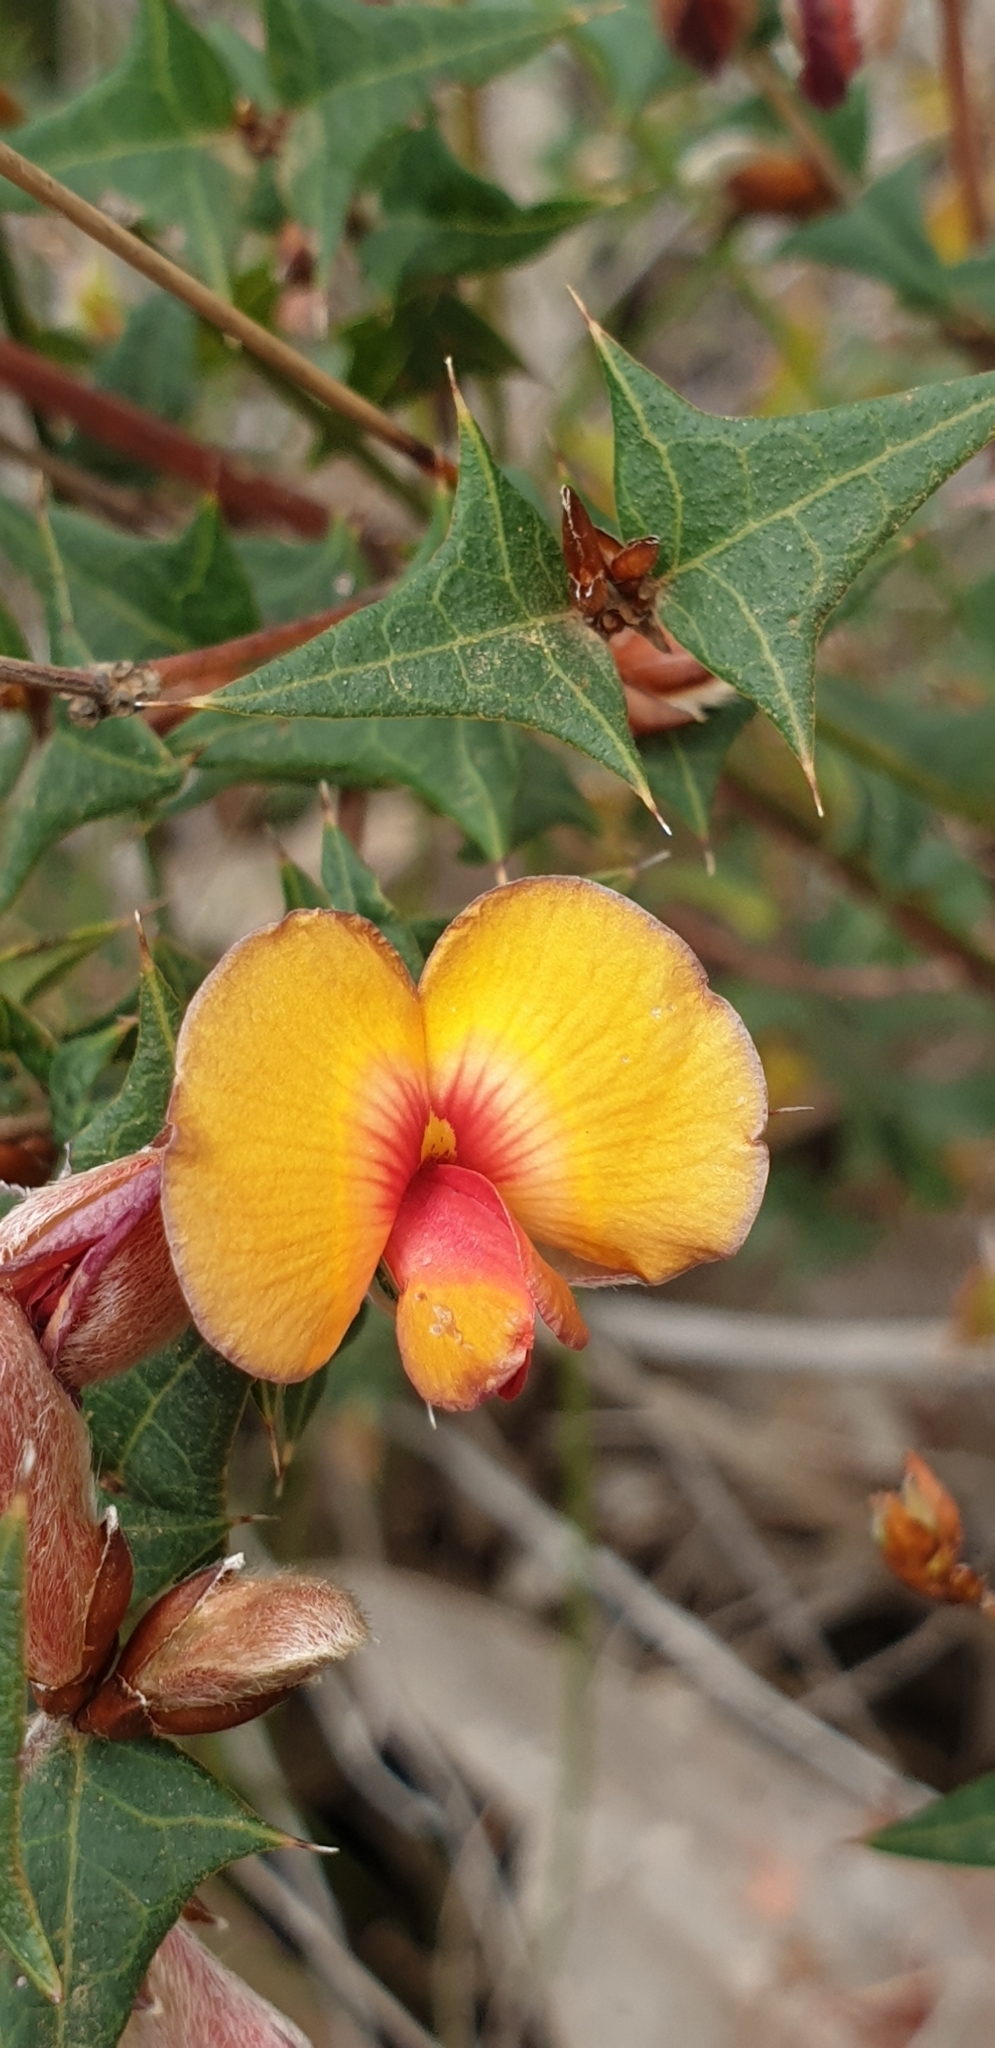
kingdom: Plantae
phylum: Tracheophyta
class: Magnoliopsida
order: Fabales
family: Fabaceae
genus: Platylobium
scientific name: Platylobium obtusangulum
